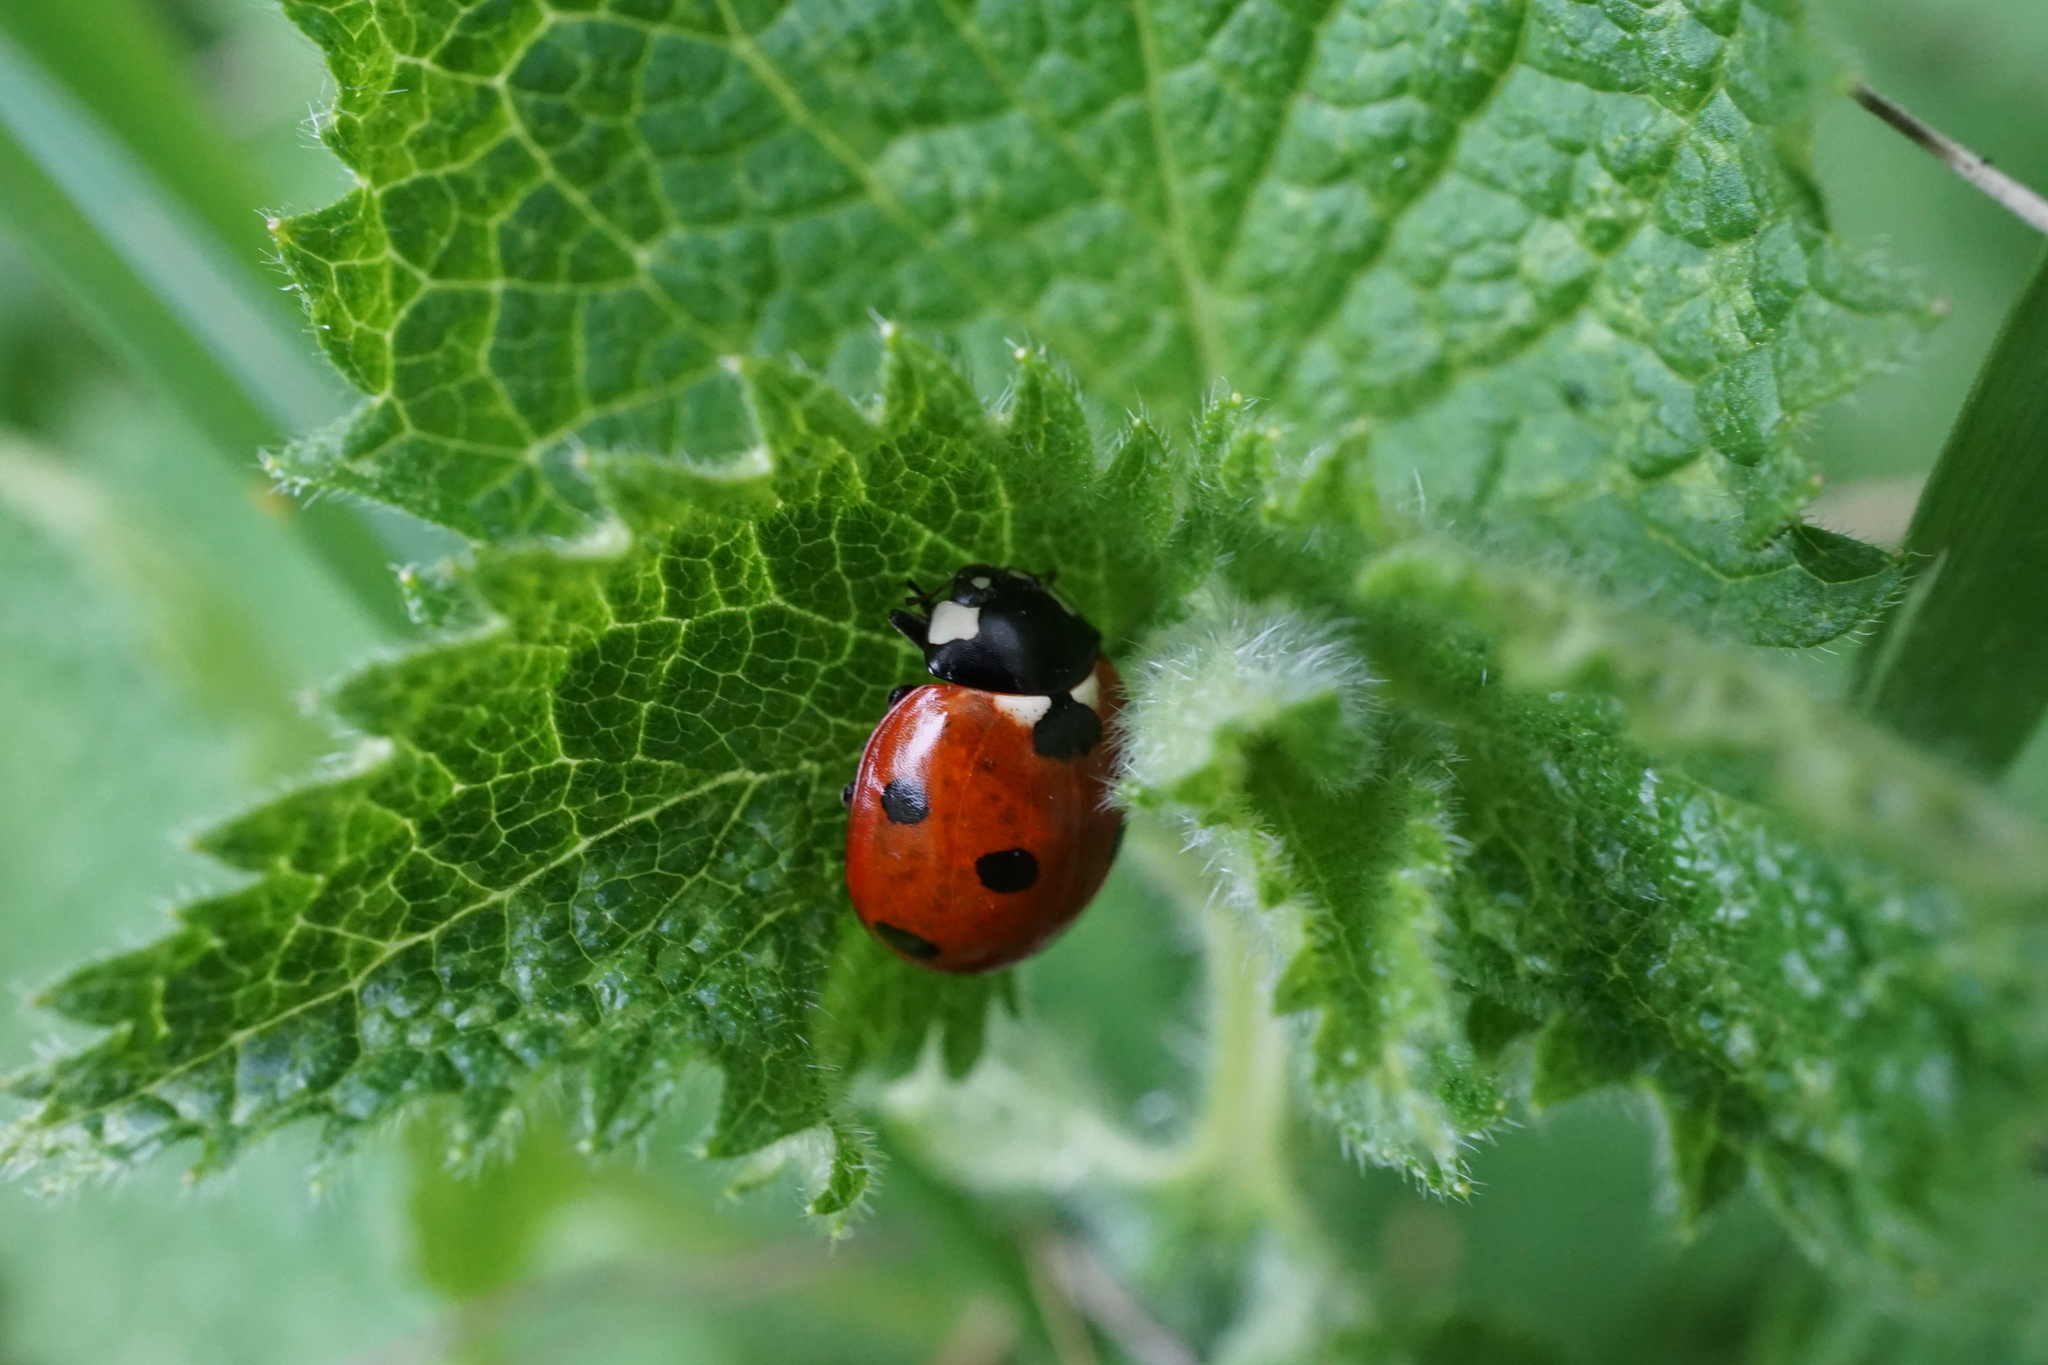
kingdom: Animalia
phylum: Arthropoda
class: Insecta
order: Coleoptera
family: Coccinellidae
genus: Coccinella
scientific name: Coccinella septempunctata
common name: Sevenspotted lady beetle
